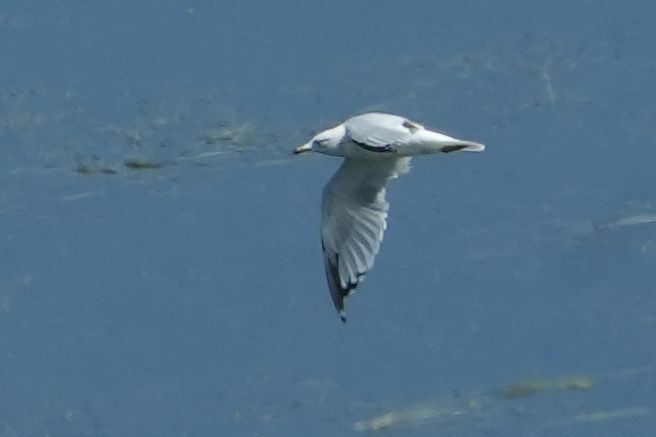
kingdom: Animalia
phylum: Chordata
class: Aves
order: Charadriiformes
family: Laridae
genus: Larus
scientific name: Larus delawarensis
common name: Ring-billed gull
